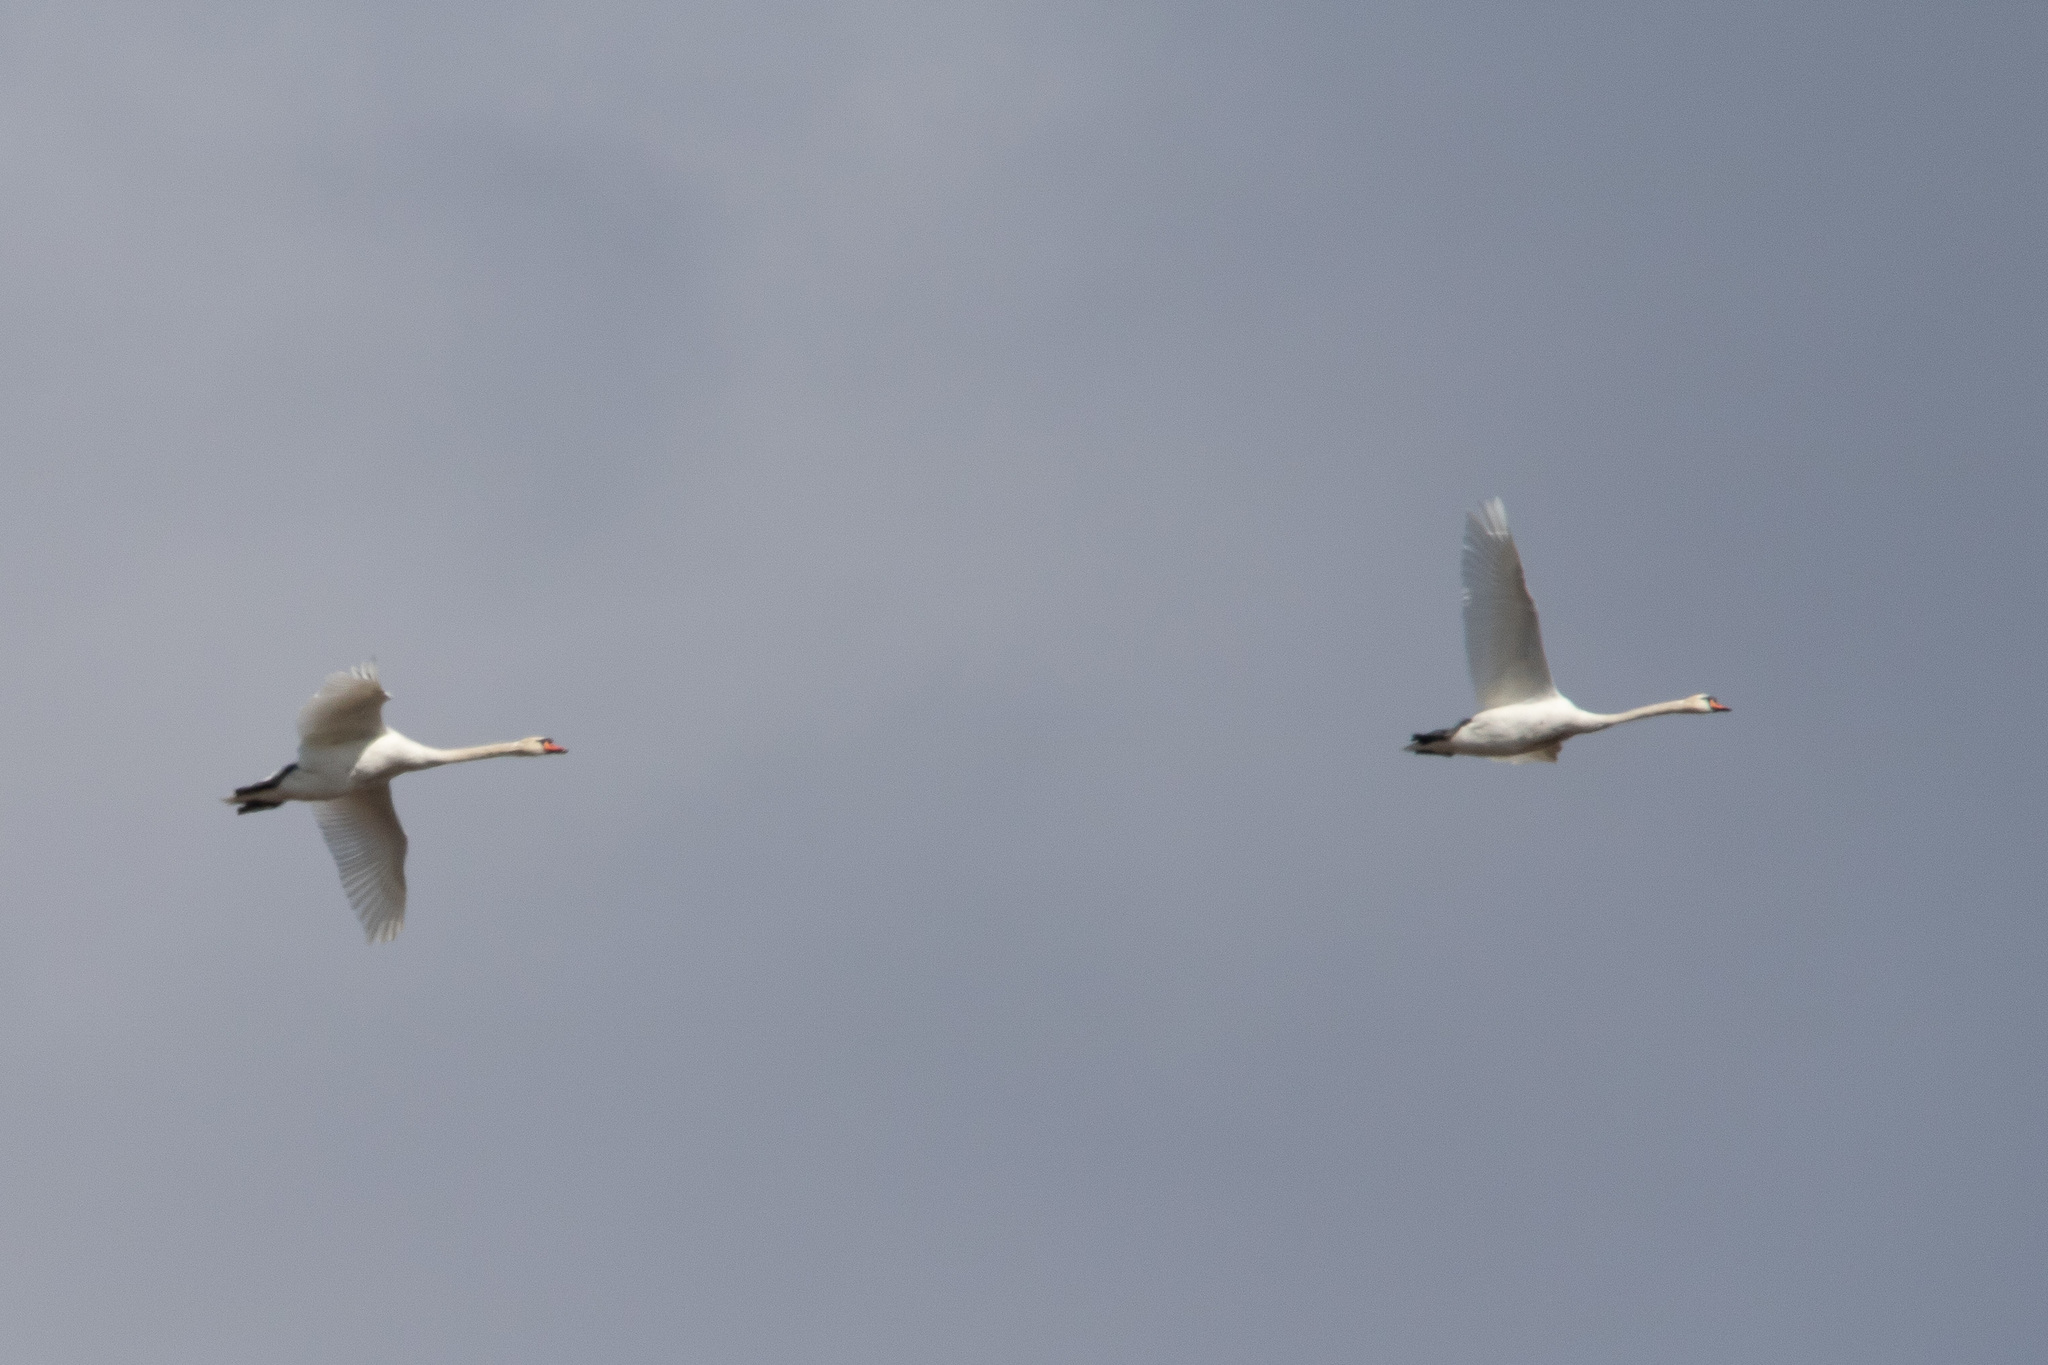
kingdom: Animalia
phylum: Chordata
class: Aves
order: Anseriformes
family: Anatidae
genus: Cygnus
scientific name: Cygnus olor
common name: Mute swan
